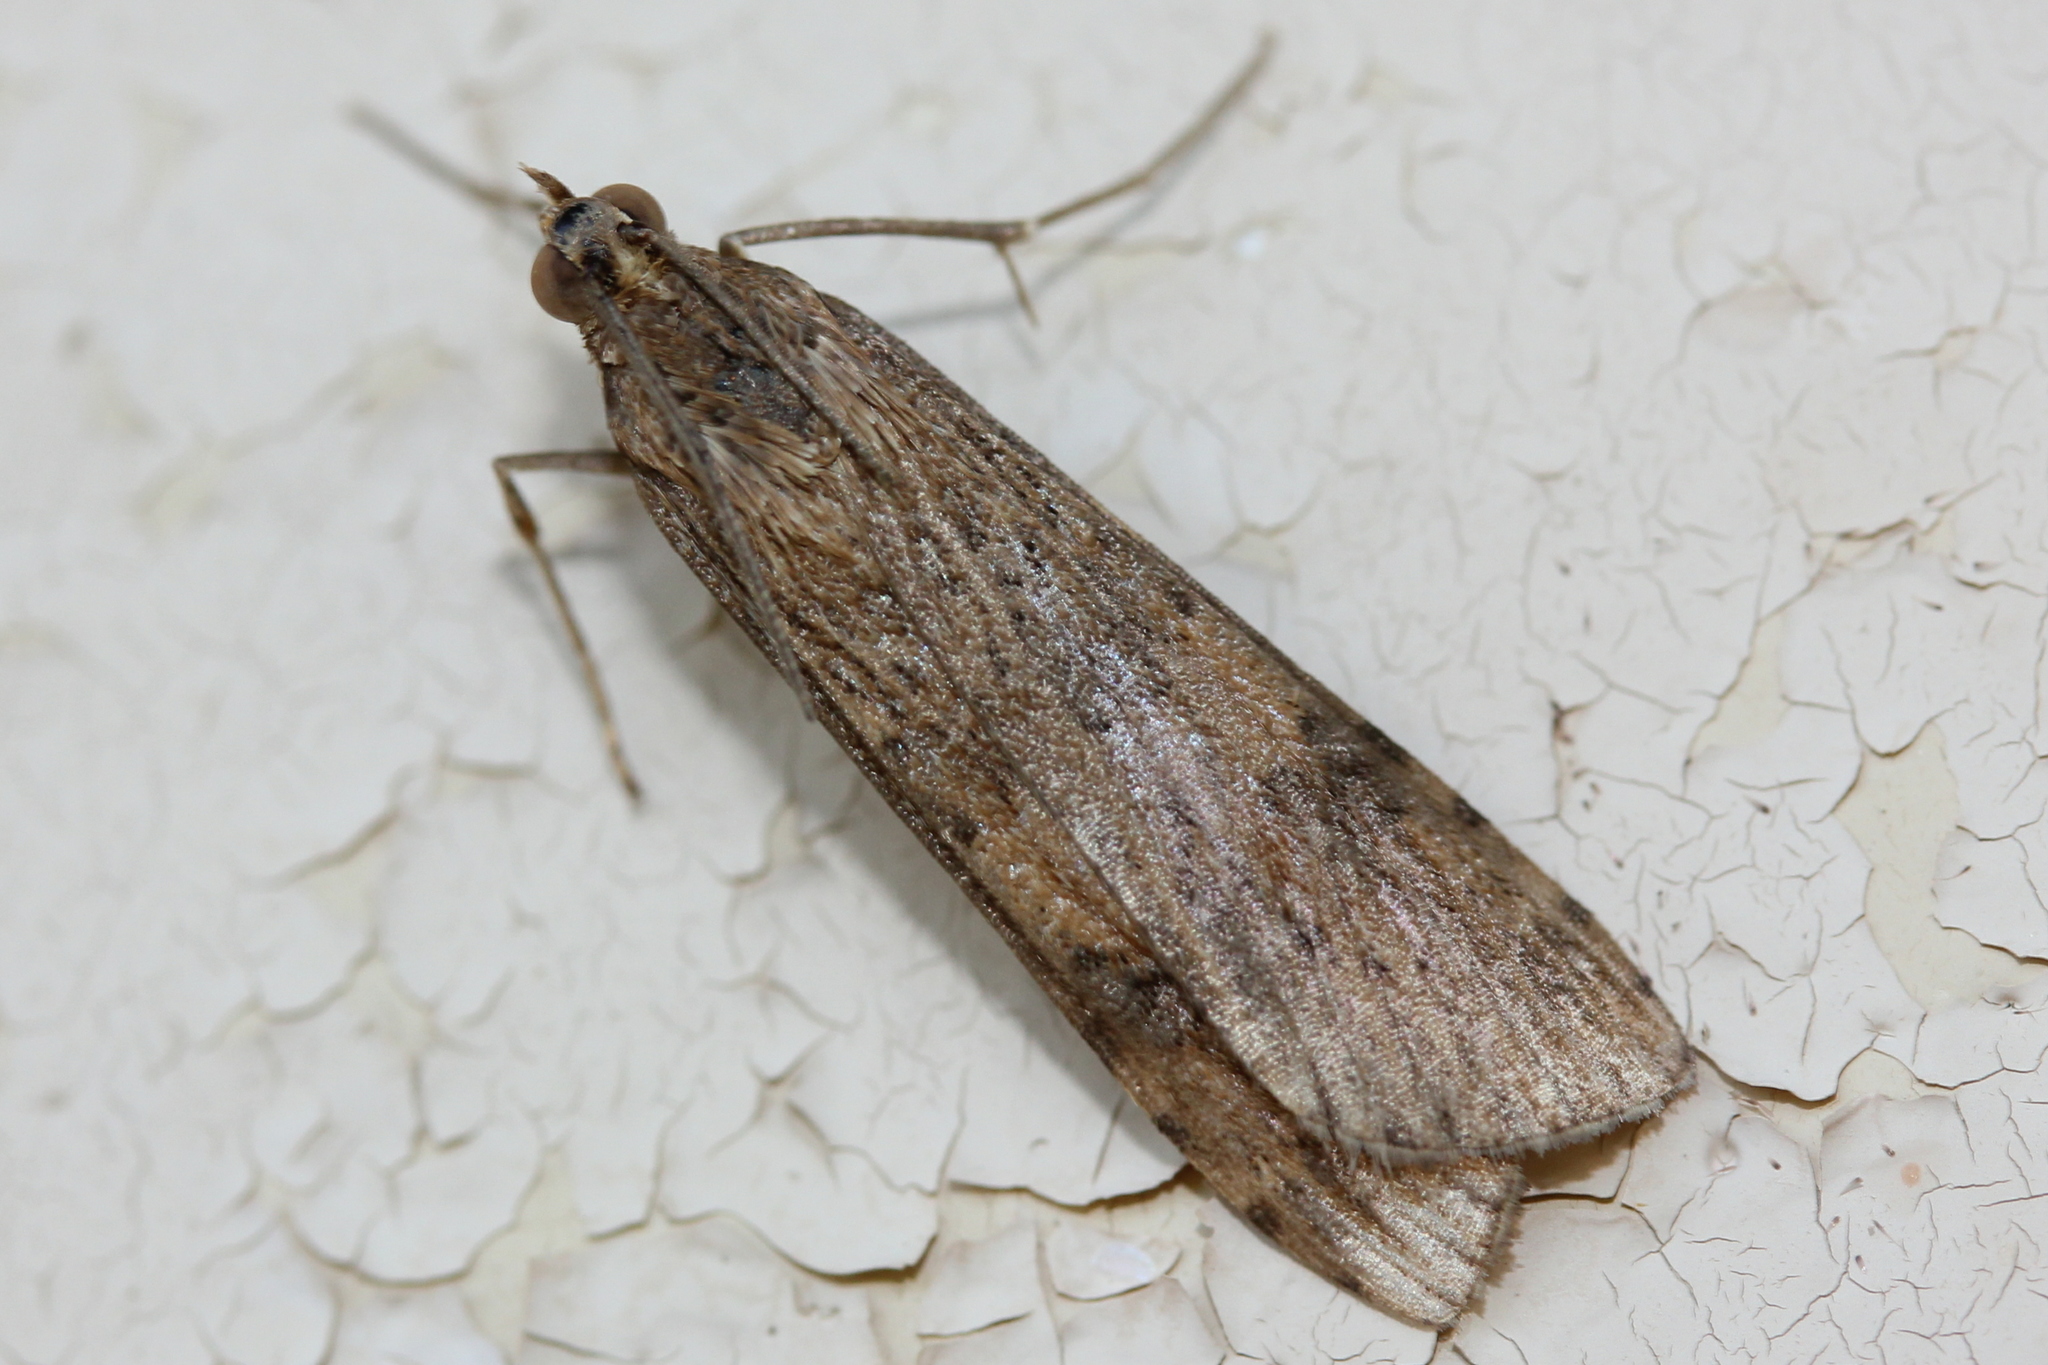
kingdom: Animalia
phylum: Arthropoda
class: Insecta
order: Lepidoptera
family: Crambidae
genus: Nomophila
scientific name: Nomophila nearctica
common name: American rush veneer
